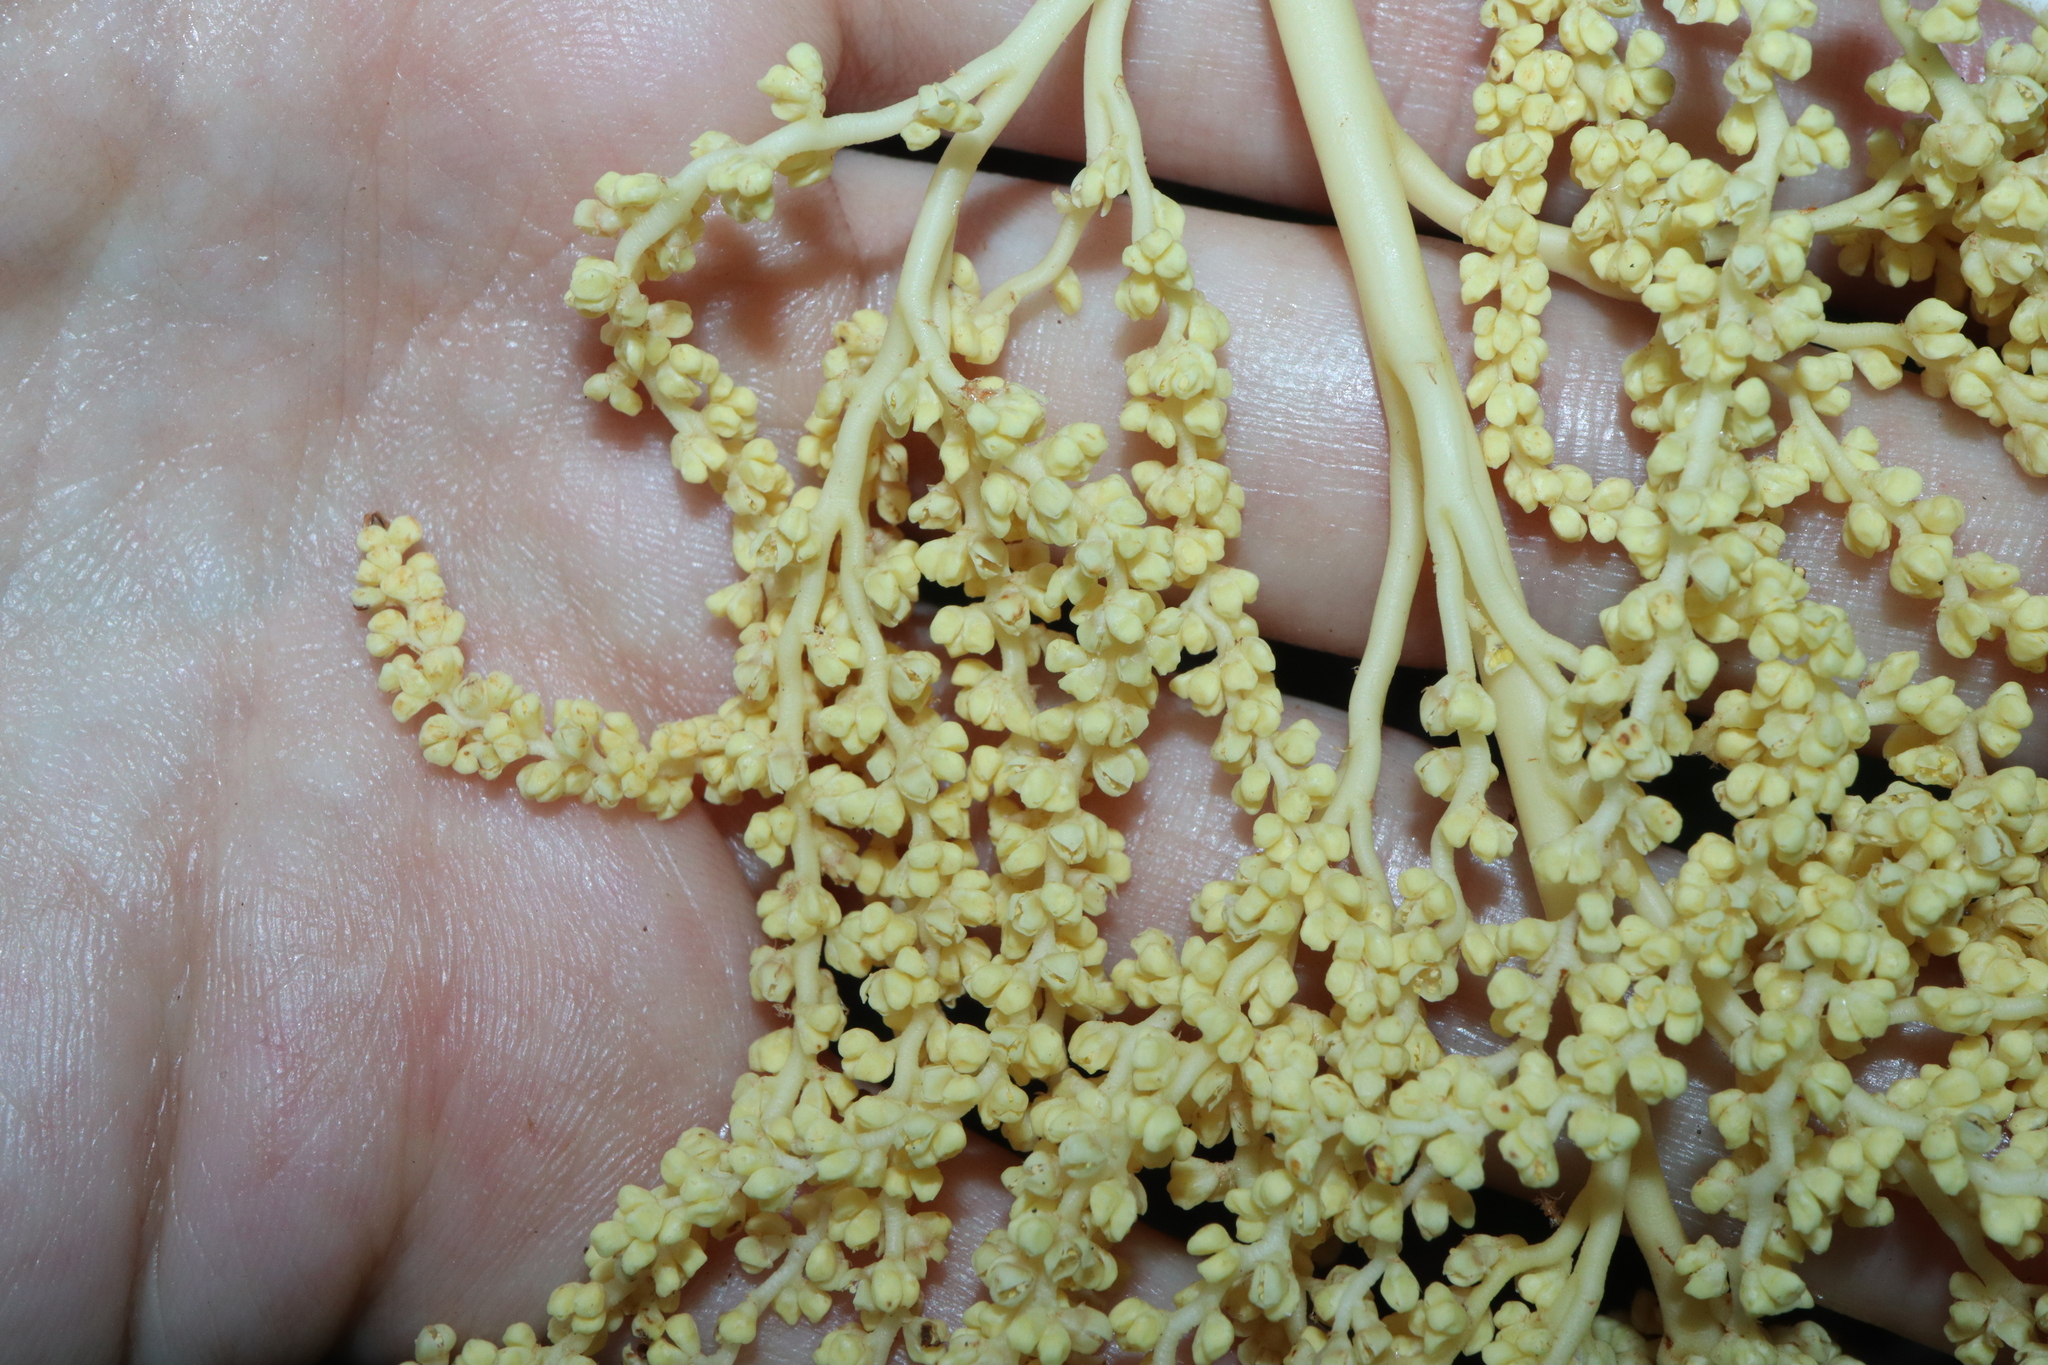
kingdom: Plantae
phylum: Tracheophyta
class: Liliopsida
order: Arecales
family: Arecaceae
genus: Livistona
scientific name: Livistona australis
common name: Cabbage fan palm
